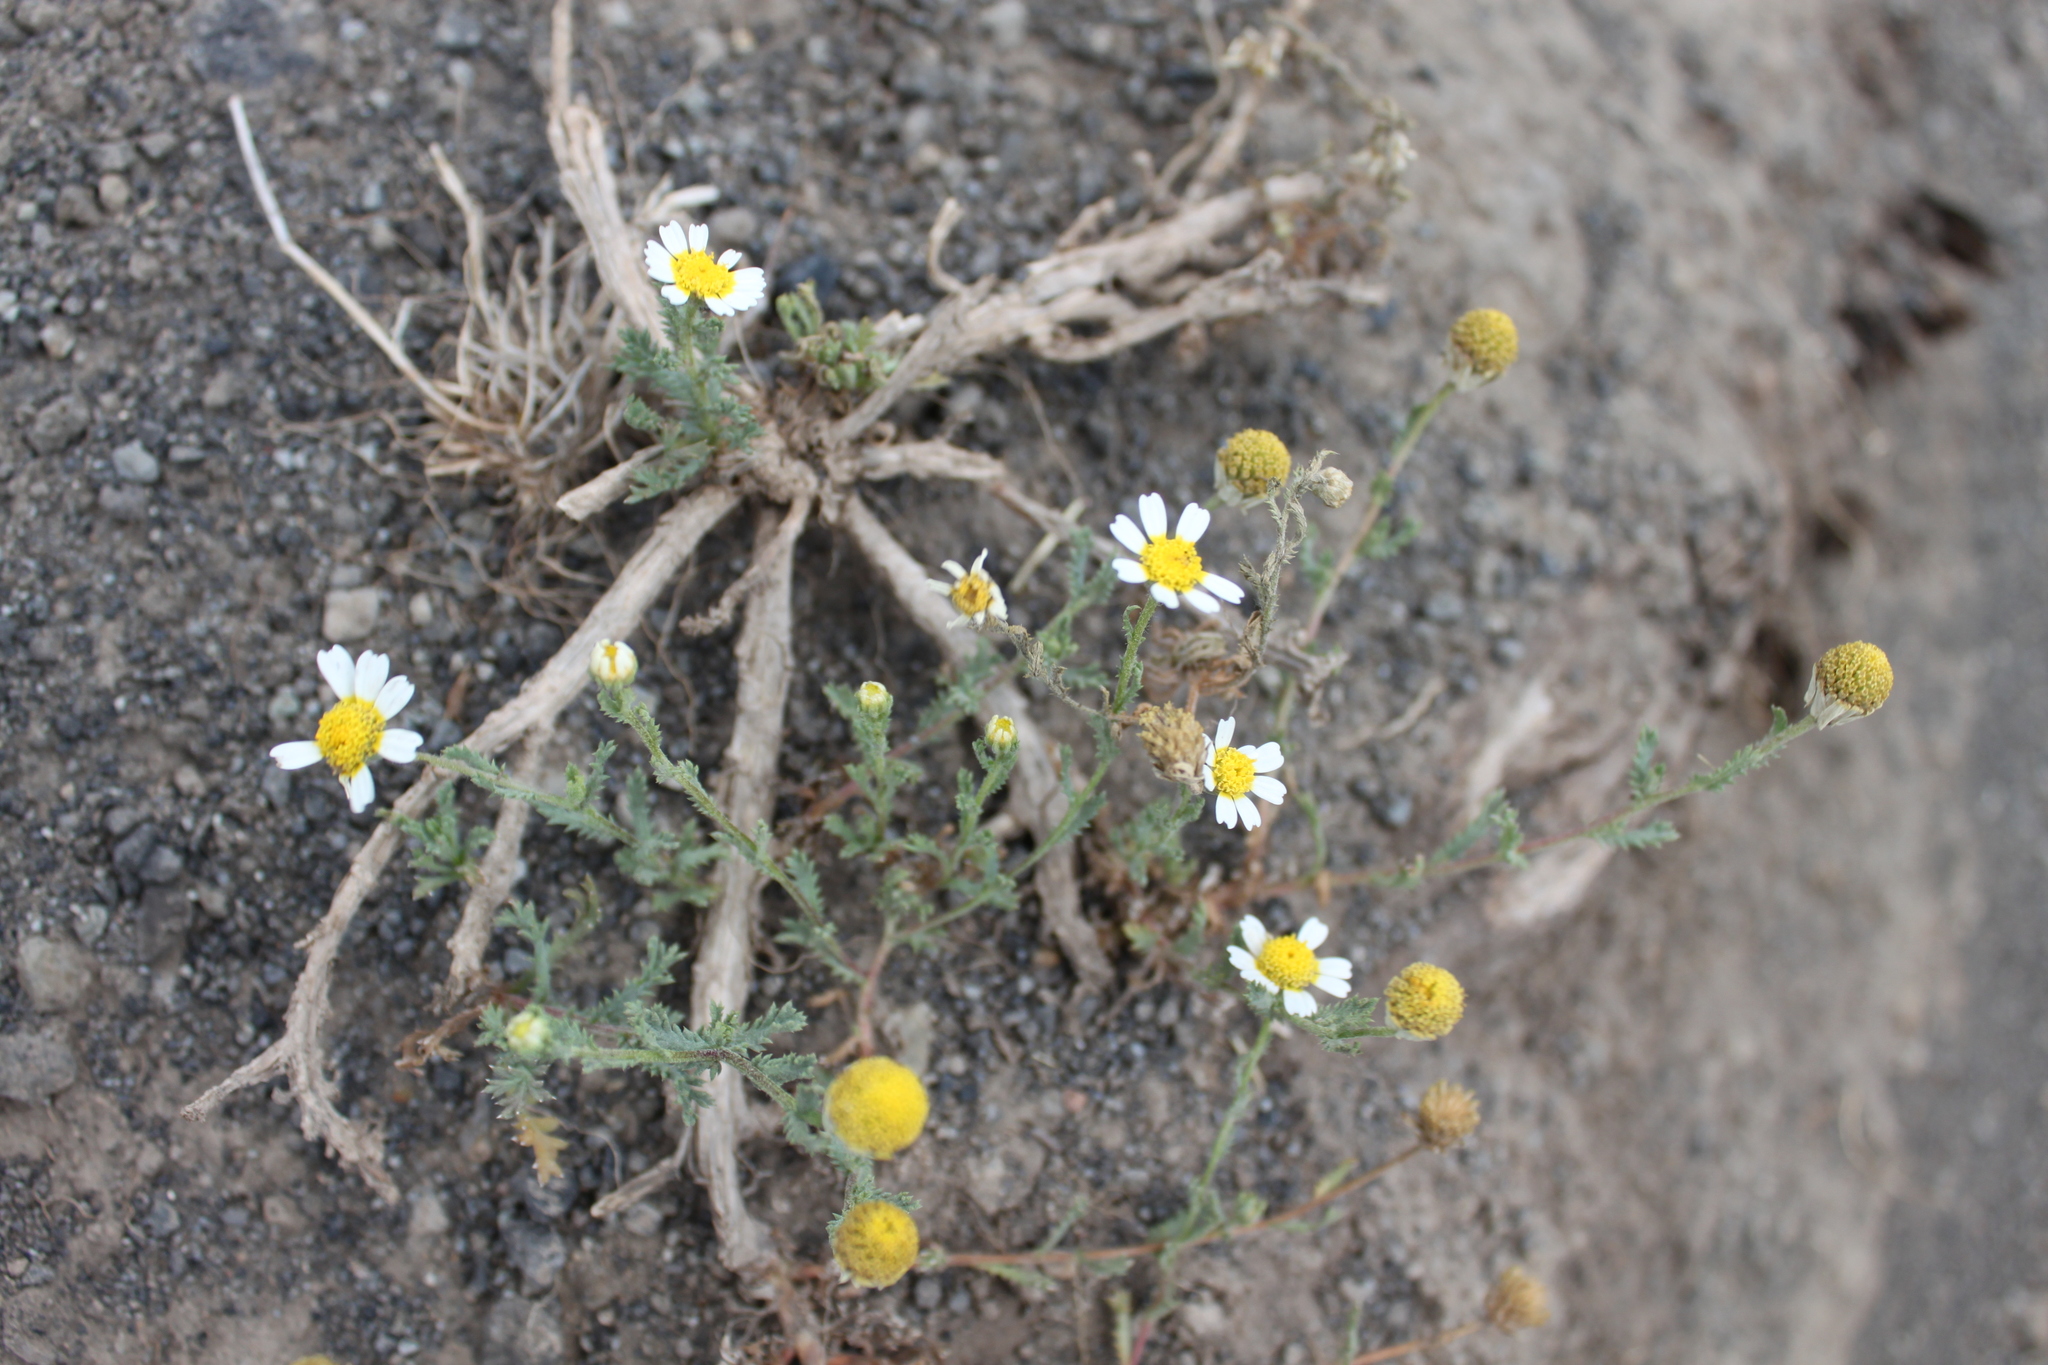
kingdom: Plantae
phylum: Tracheophyta
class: Magnoliopsida
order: Asterales
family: Asteraceae
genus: Cladanthus
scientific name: Cladanthus mixtus
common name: Weedy dogfennel
